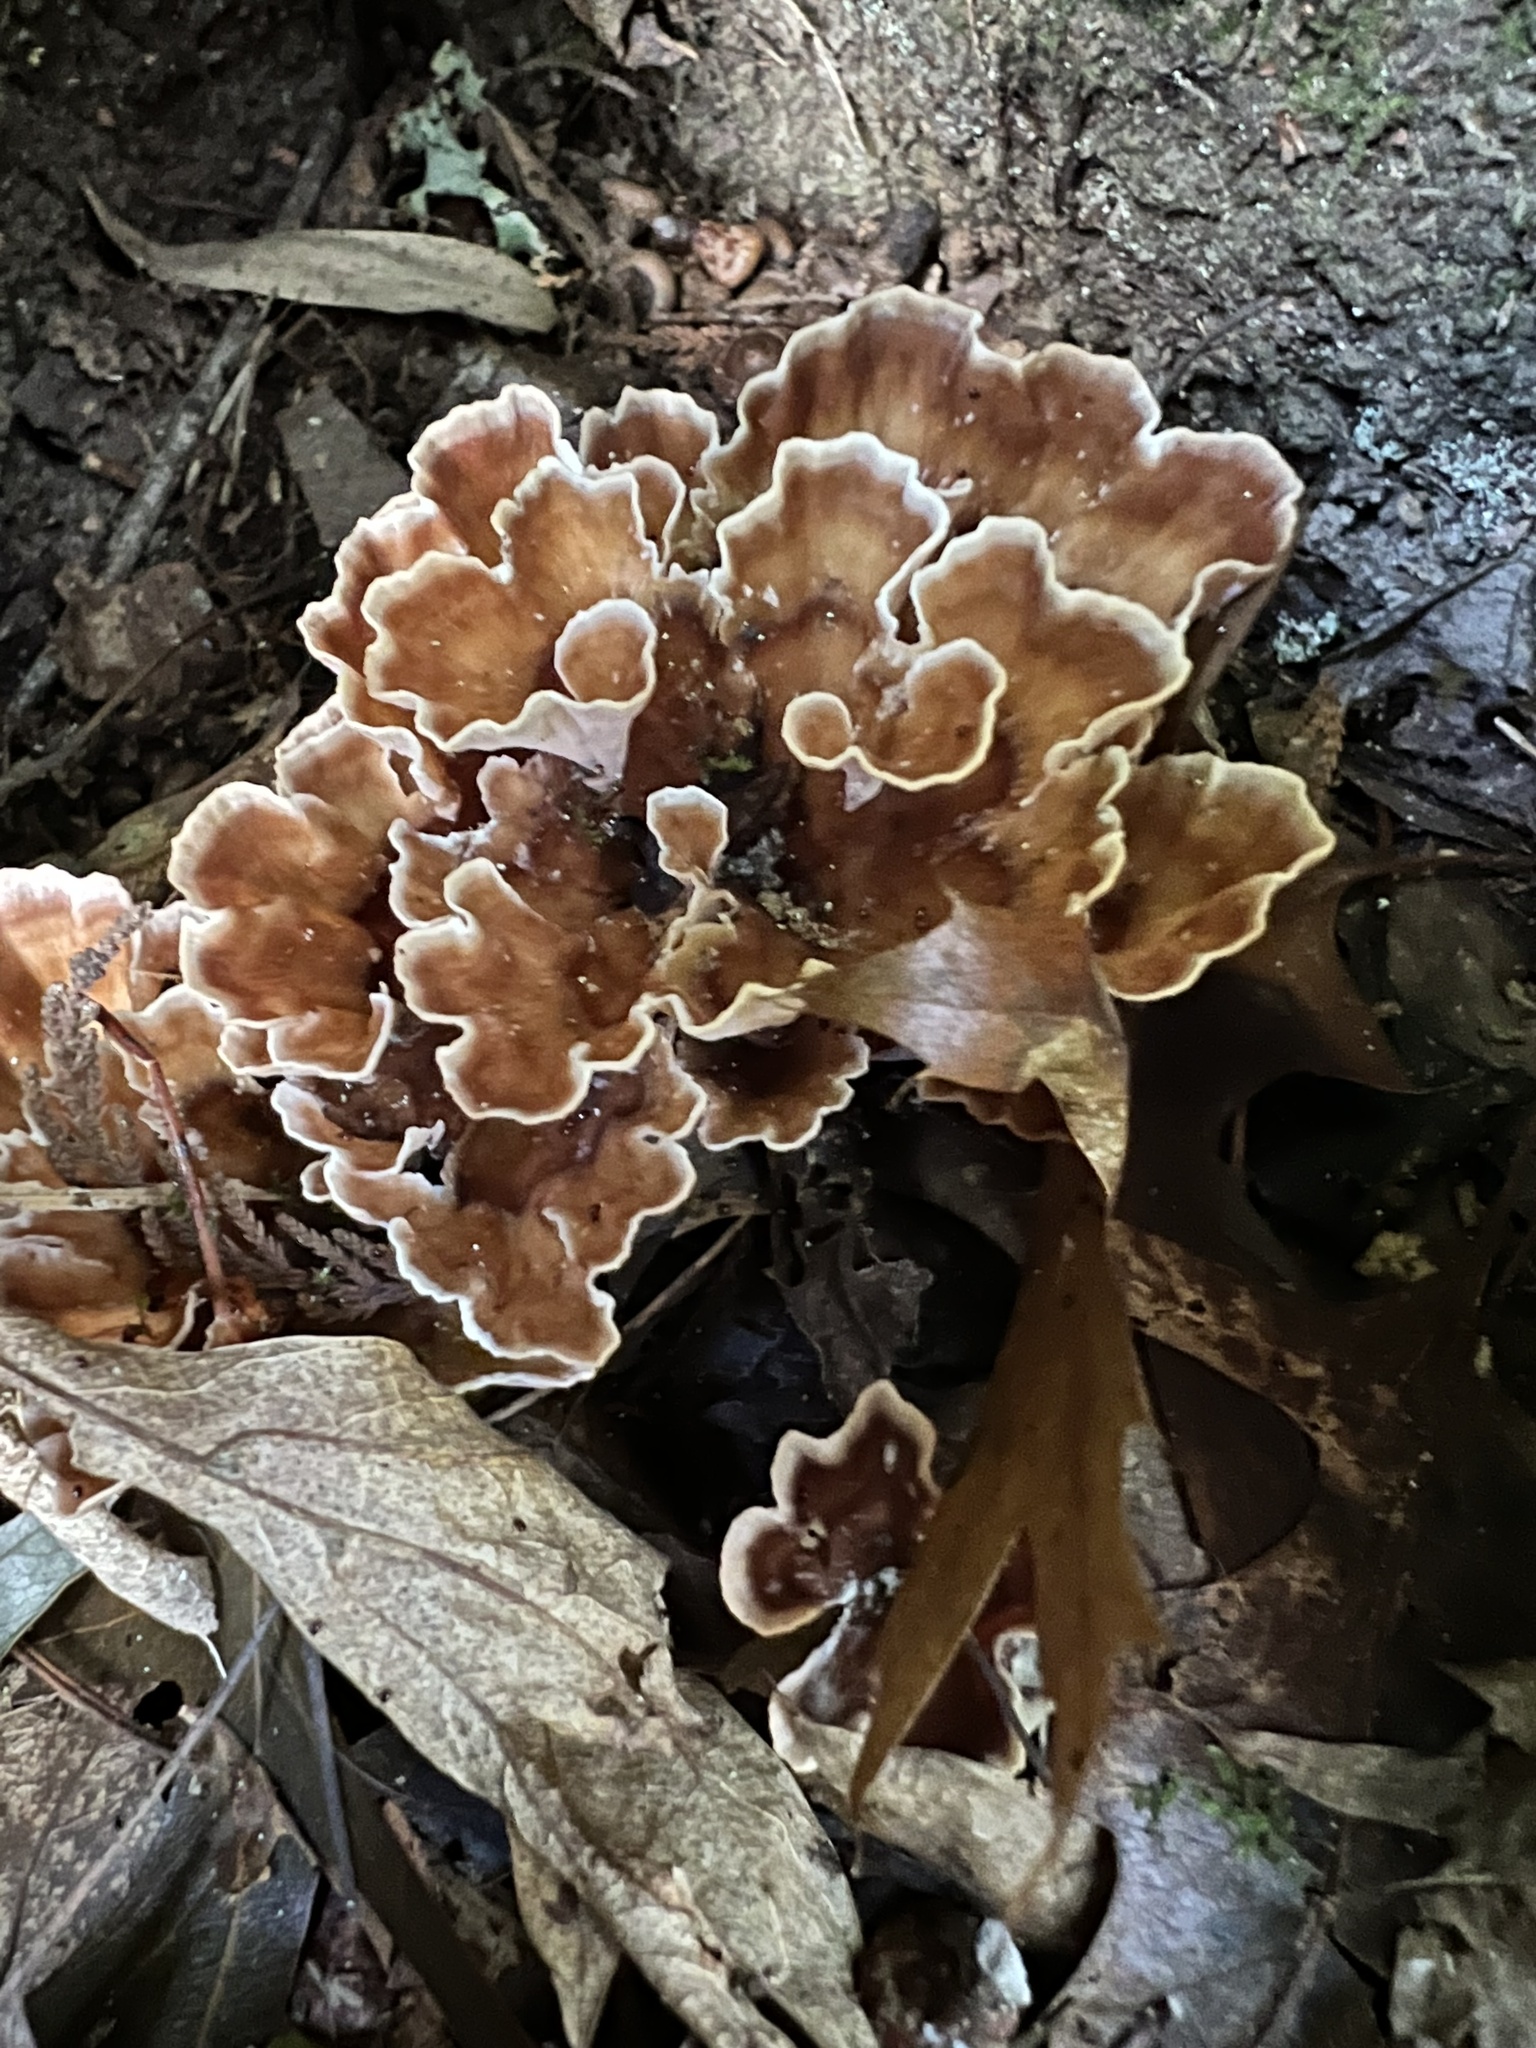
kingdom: Fungi
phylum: Basidiomycota
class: Agaricomycetes
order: Polyporales
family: Podoscyphaceae
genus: Podoscypha
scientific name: Podoscypha petalodes
